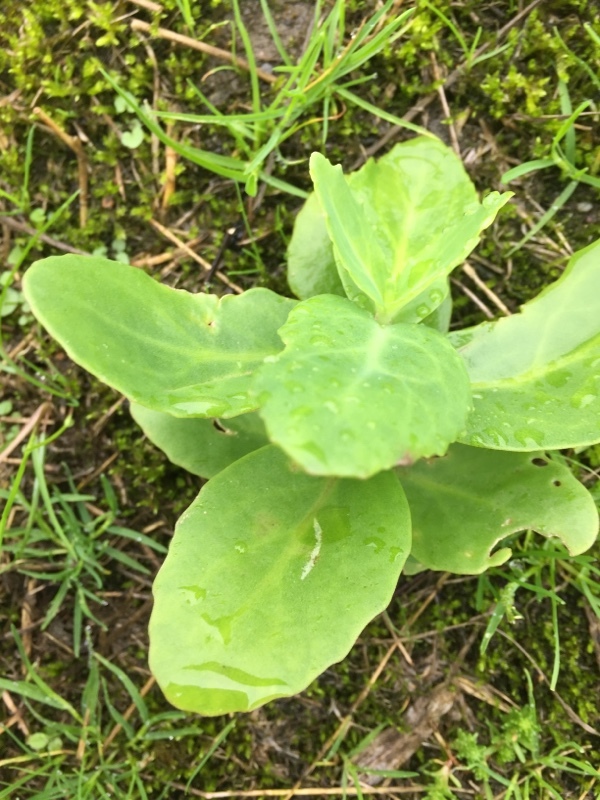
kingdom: Plantae
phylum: Tracheophyta
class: Magnoliopsida
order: Saxifragales
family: Crassulaceae
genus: Hylotelephium
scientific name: Hylotelephium maximum
